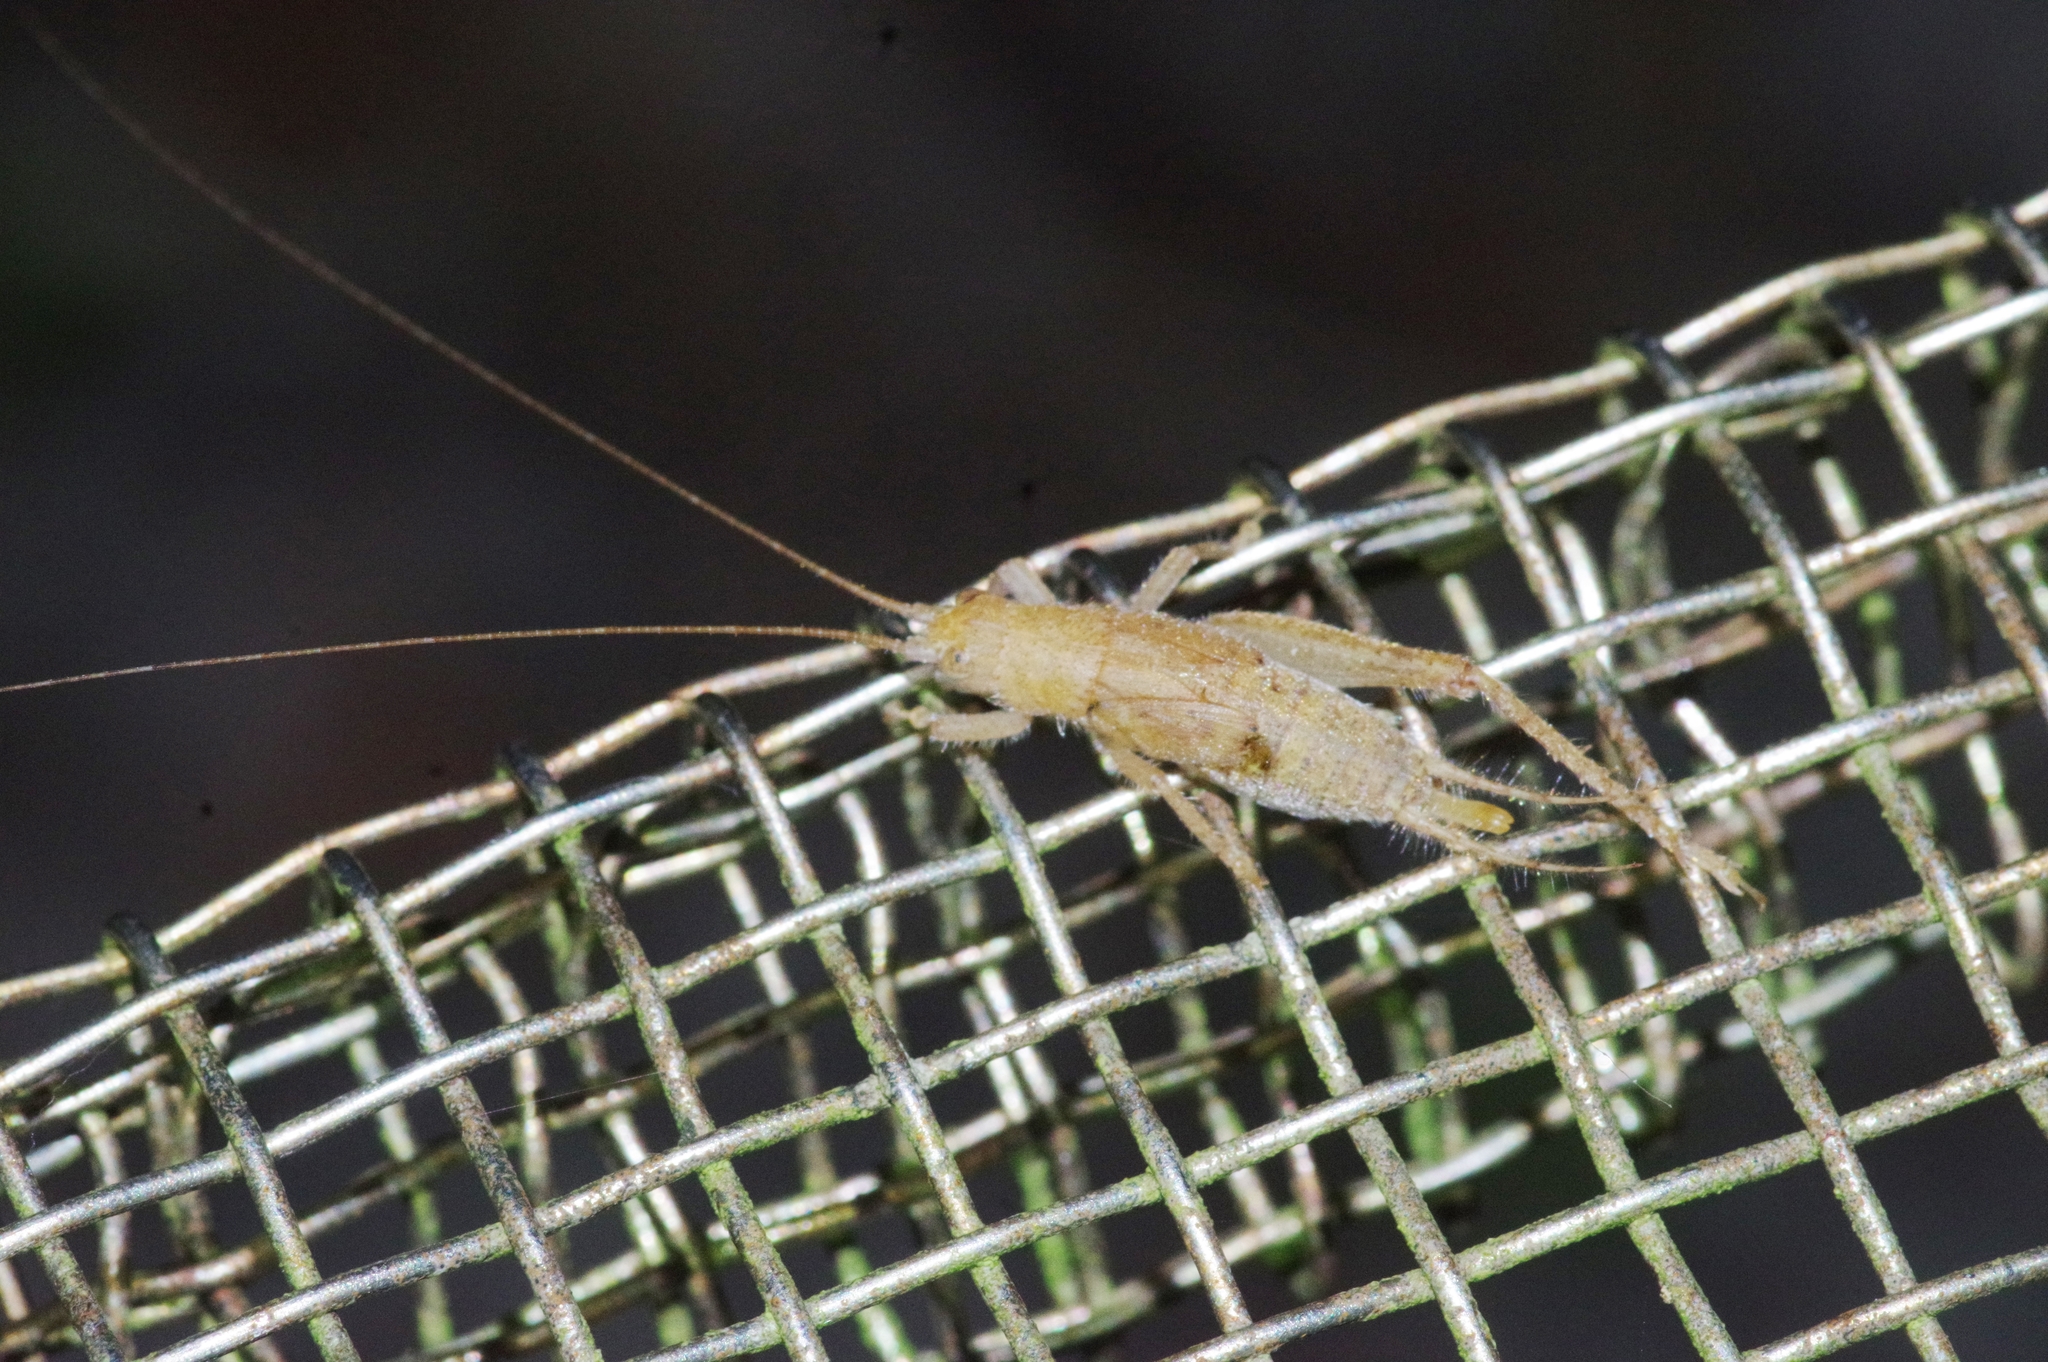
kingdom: Animalia
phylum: Arthropoda
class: Insecta
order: Orthoptera
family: Gryllidae
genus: Aphonoides
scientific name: Aphonoides rufescens
